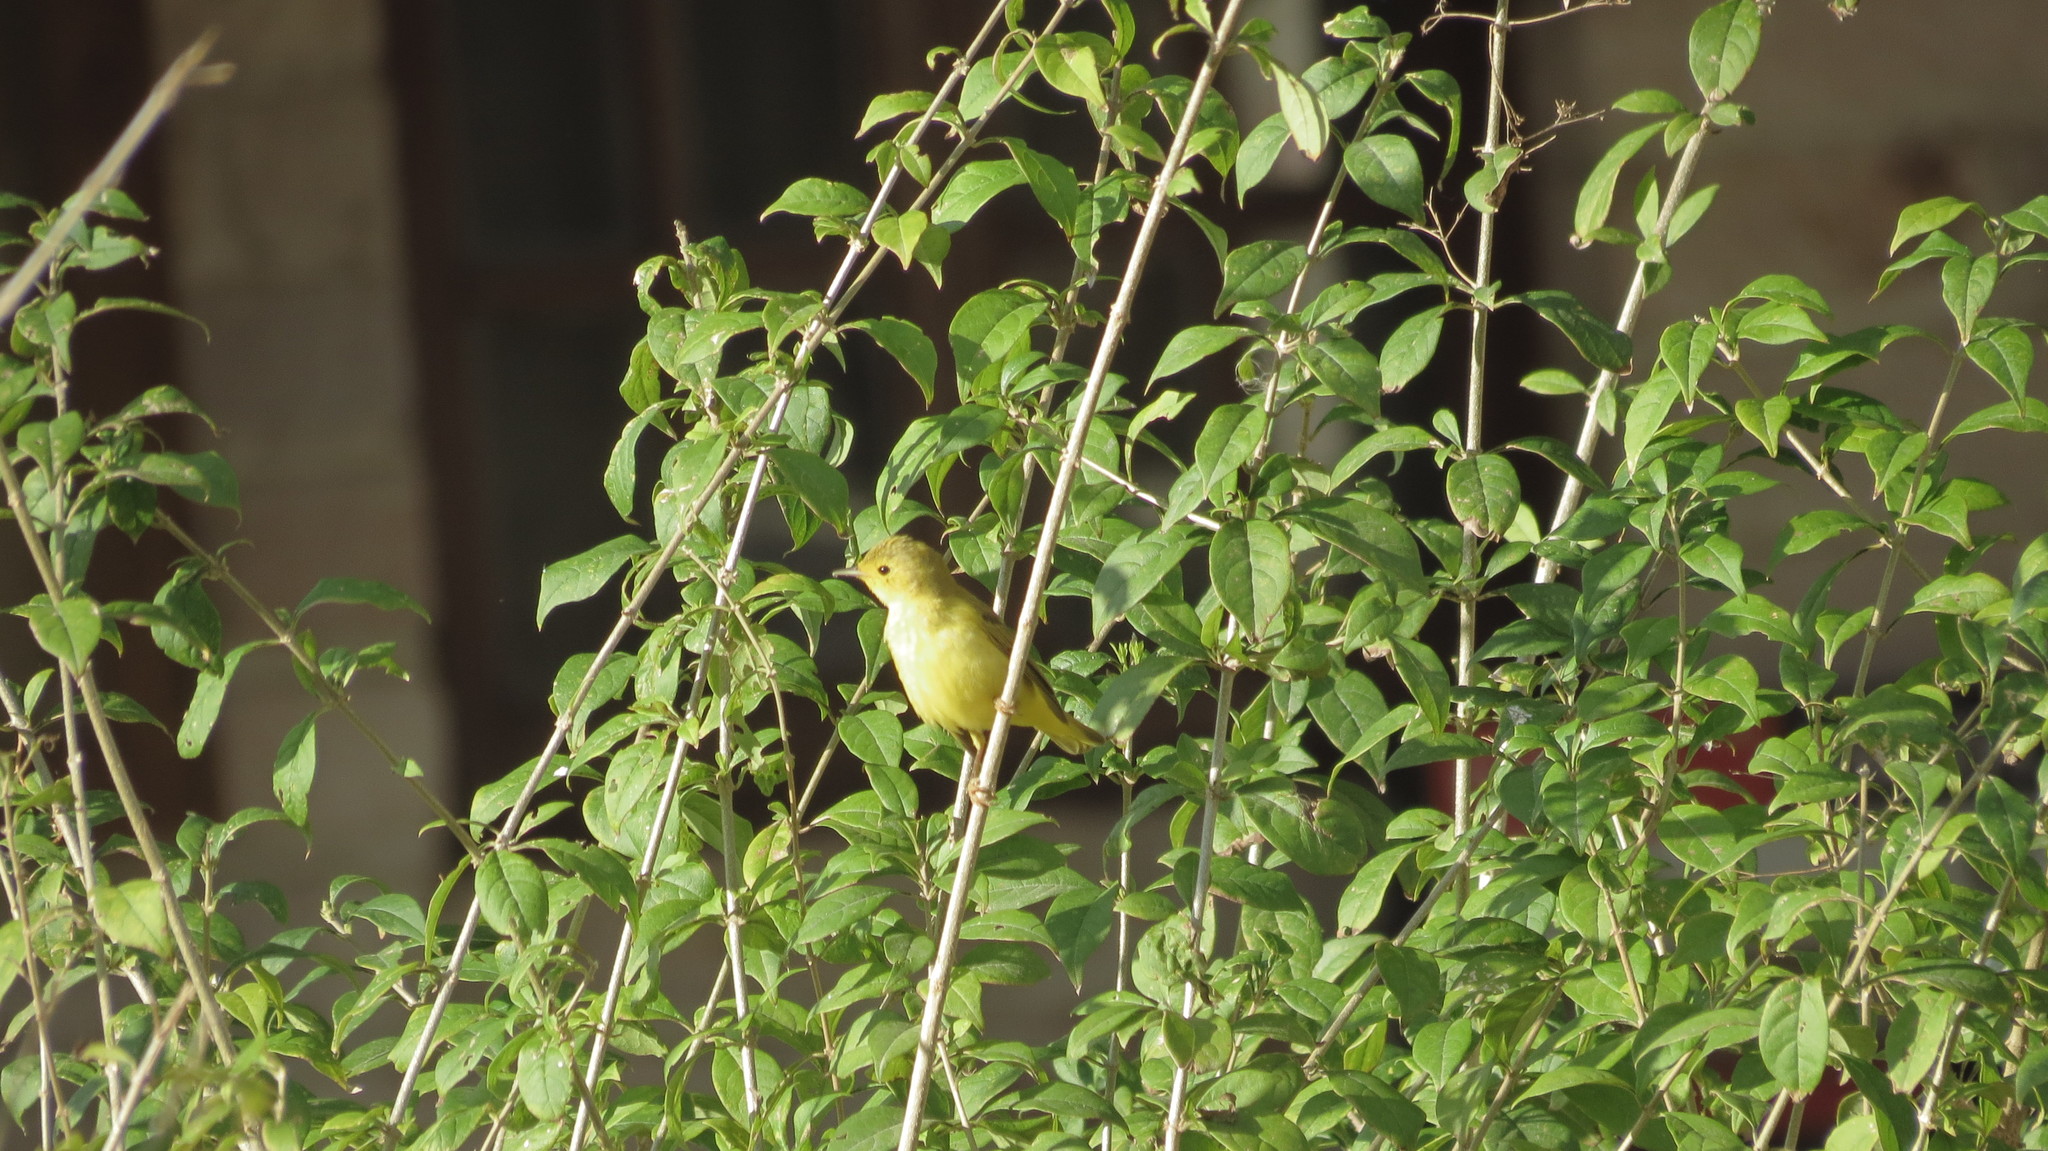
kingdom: Animalia
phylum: Chordata
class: Aves
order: Passeriformes
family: Parulidae
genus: Setophaga
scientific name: Setophaga petechia
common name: Yellow warbler
